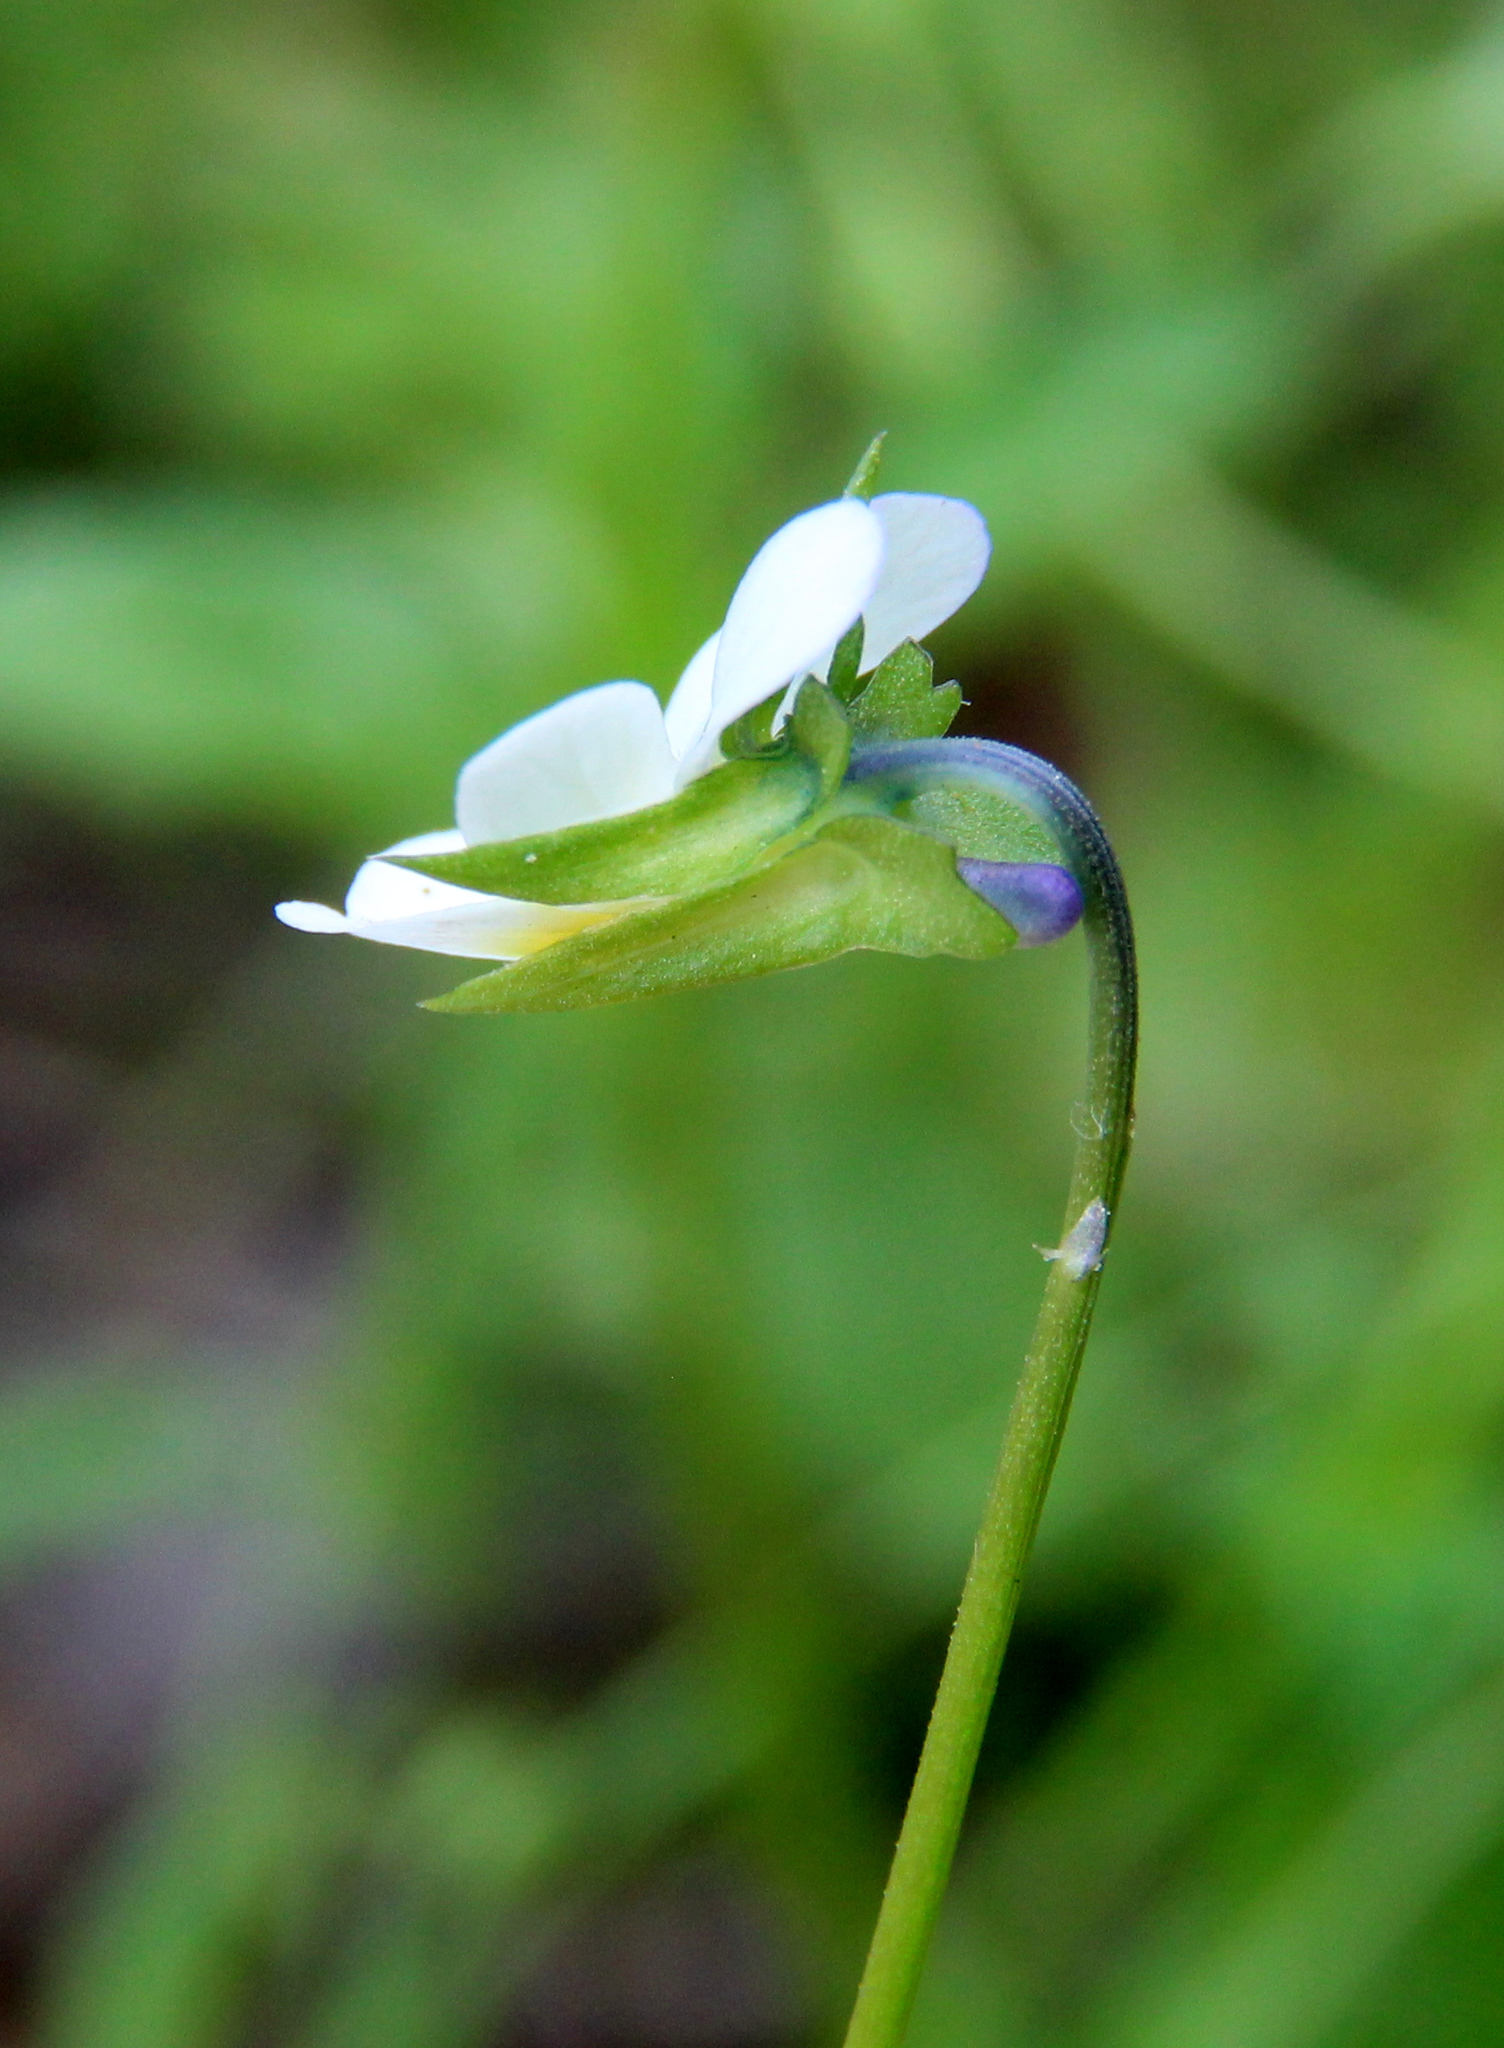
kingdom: Plantae
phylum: Tracheophyta
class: Magnoliopsida
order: Malpighiales
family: Violaceae
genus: Viola
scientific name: Viola arvensis
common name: Field pansy
